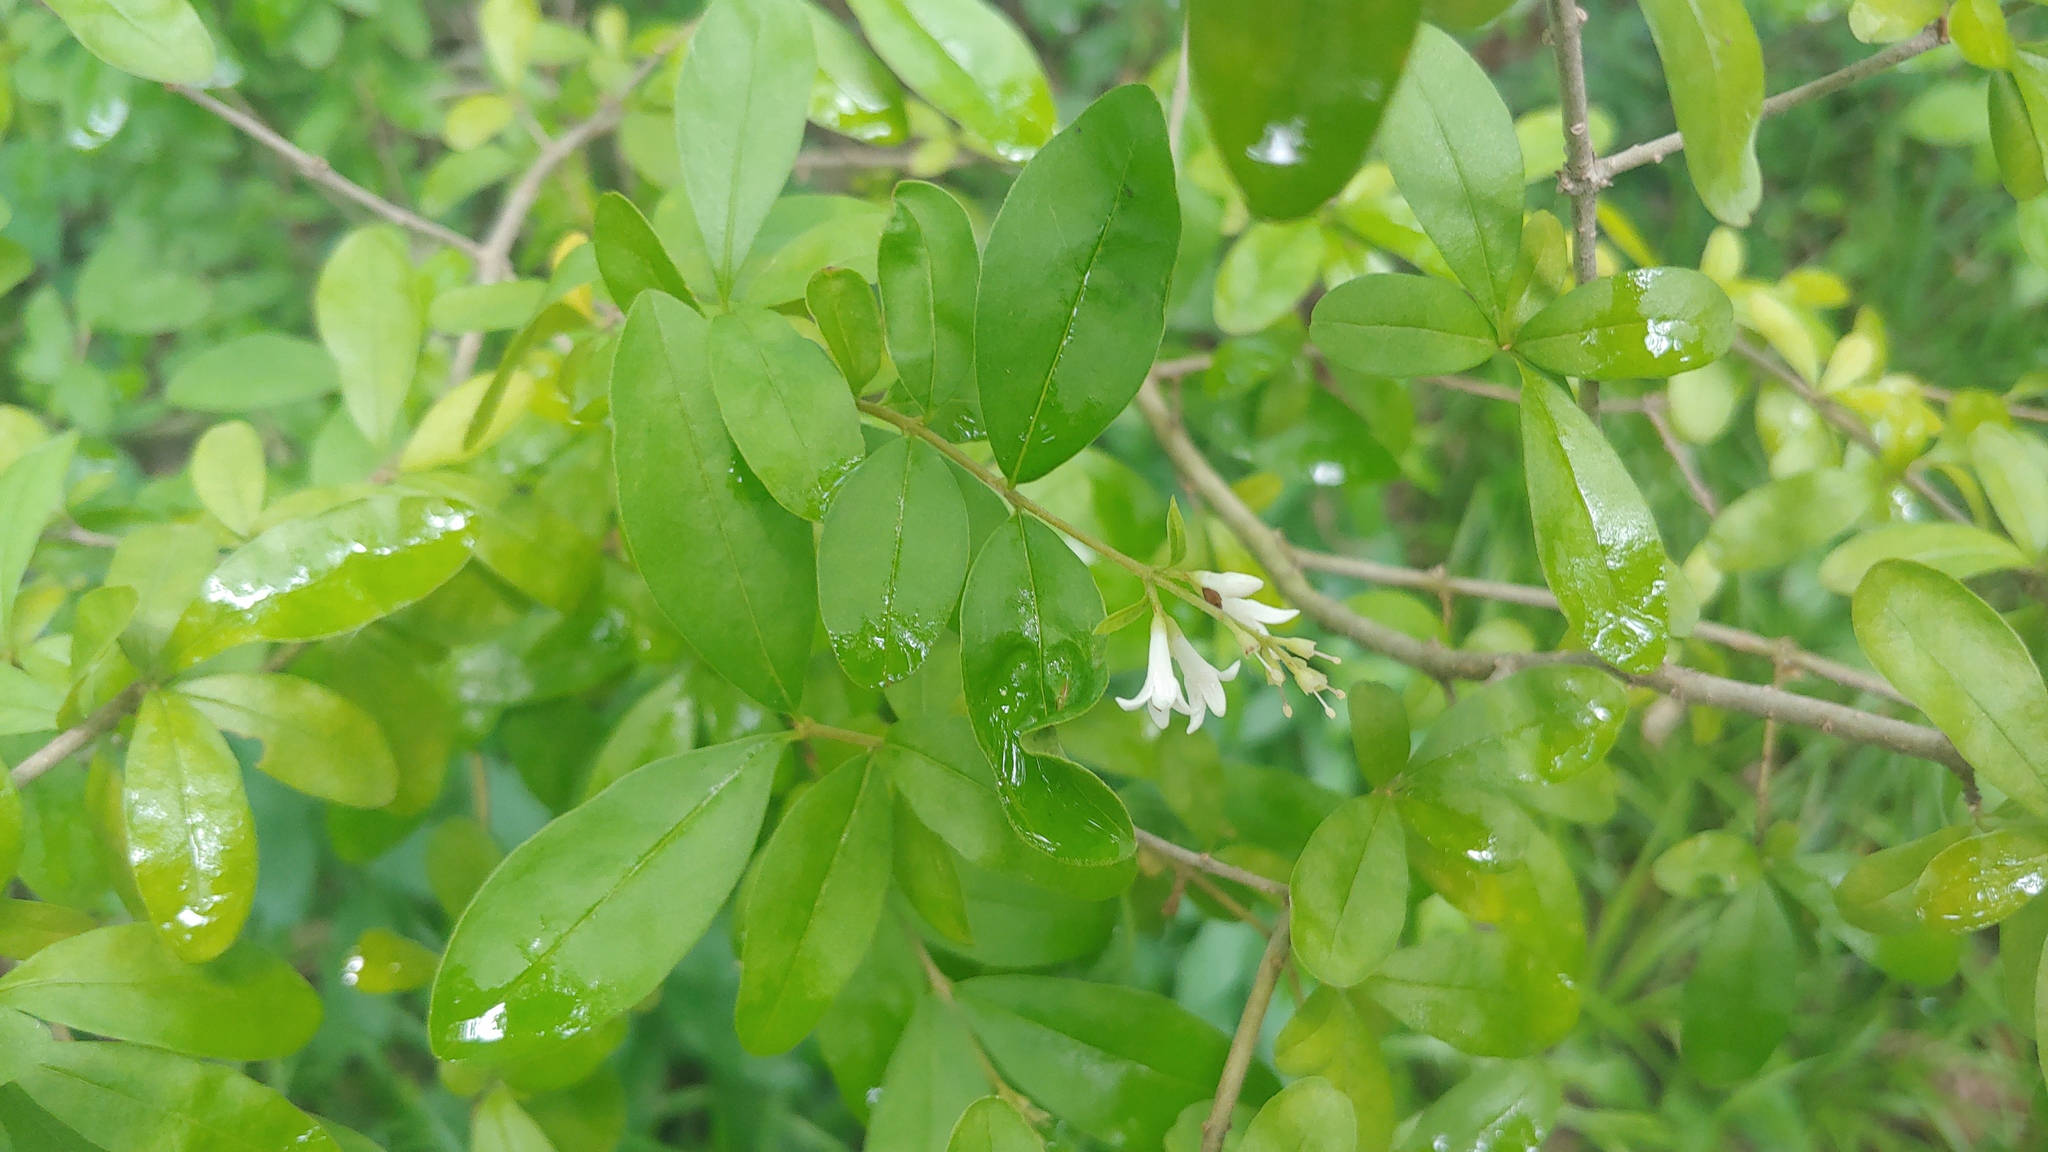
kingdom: Plantae
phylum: Tracheophyta
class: Magnoliopsida
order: Lamiales
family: Oleaceae
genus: Ligustrum
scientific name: Ligustrum obtusifolium
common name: Border privet
